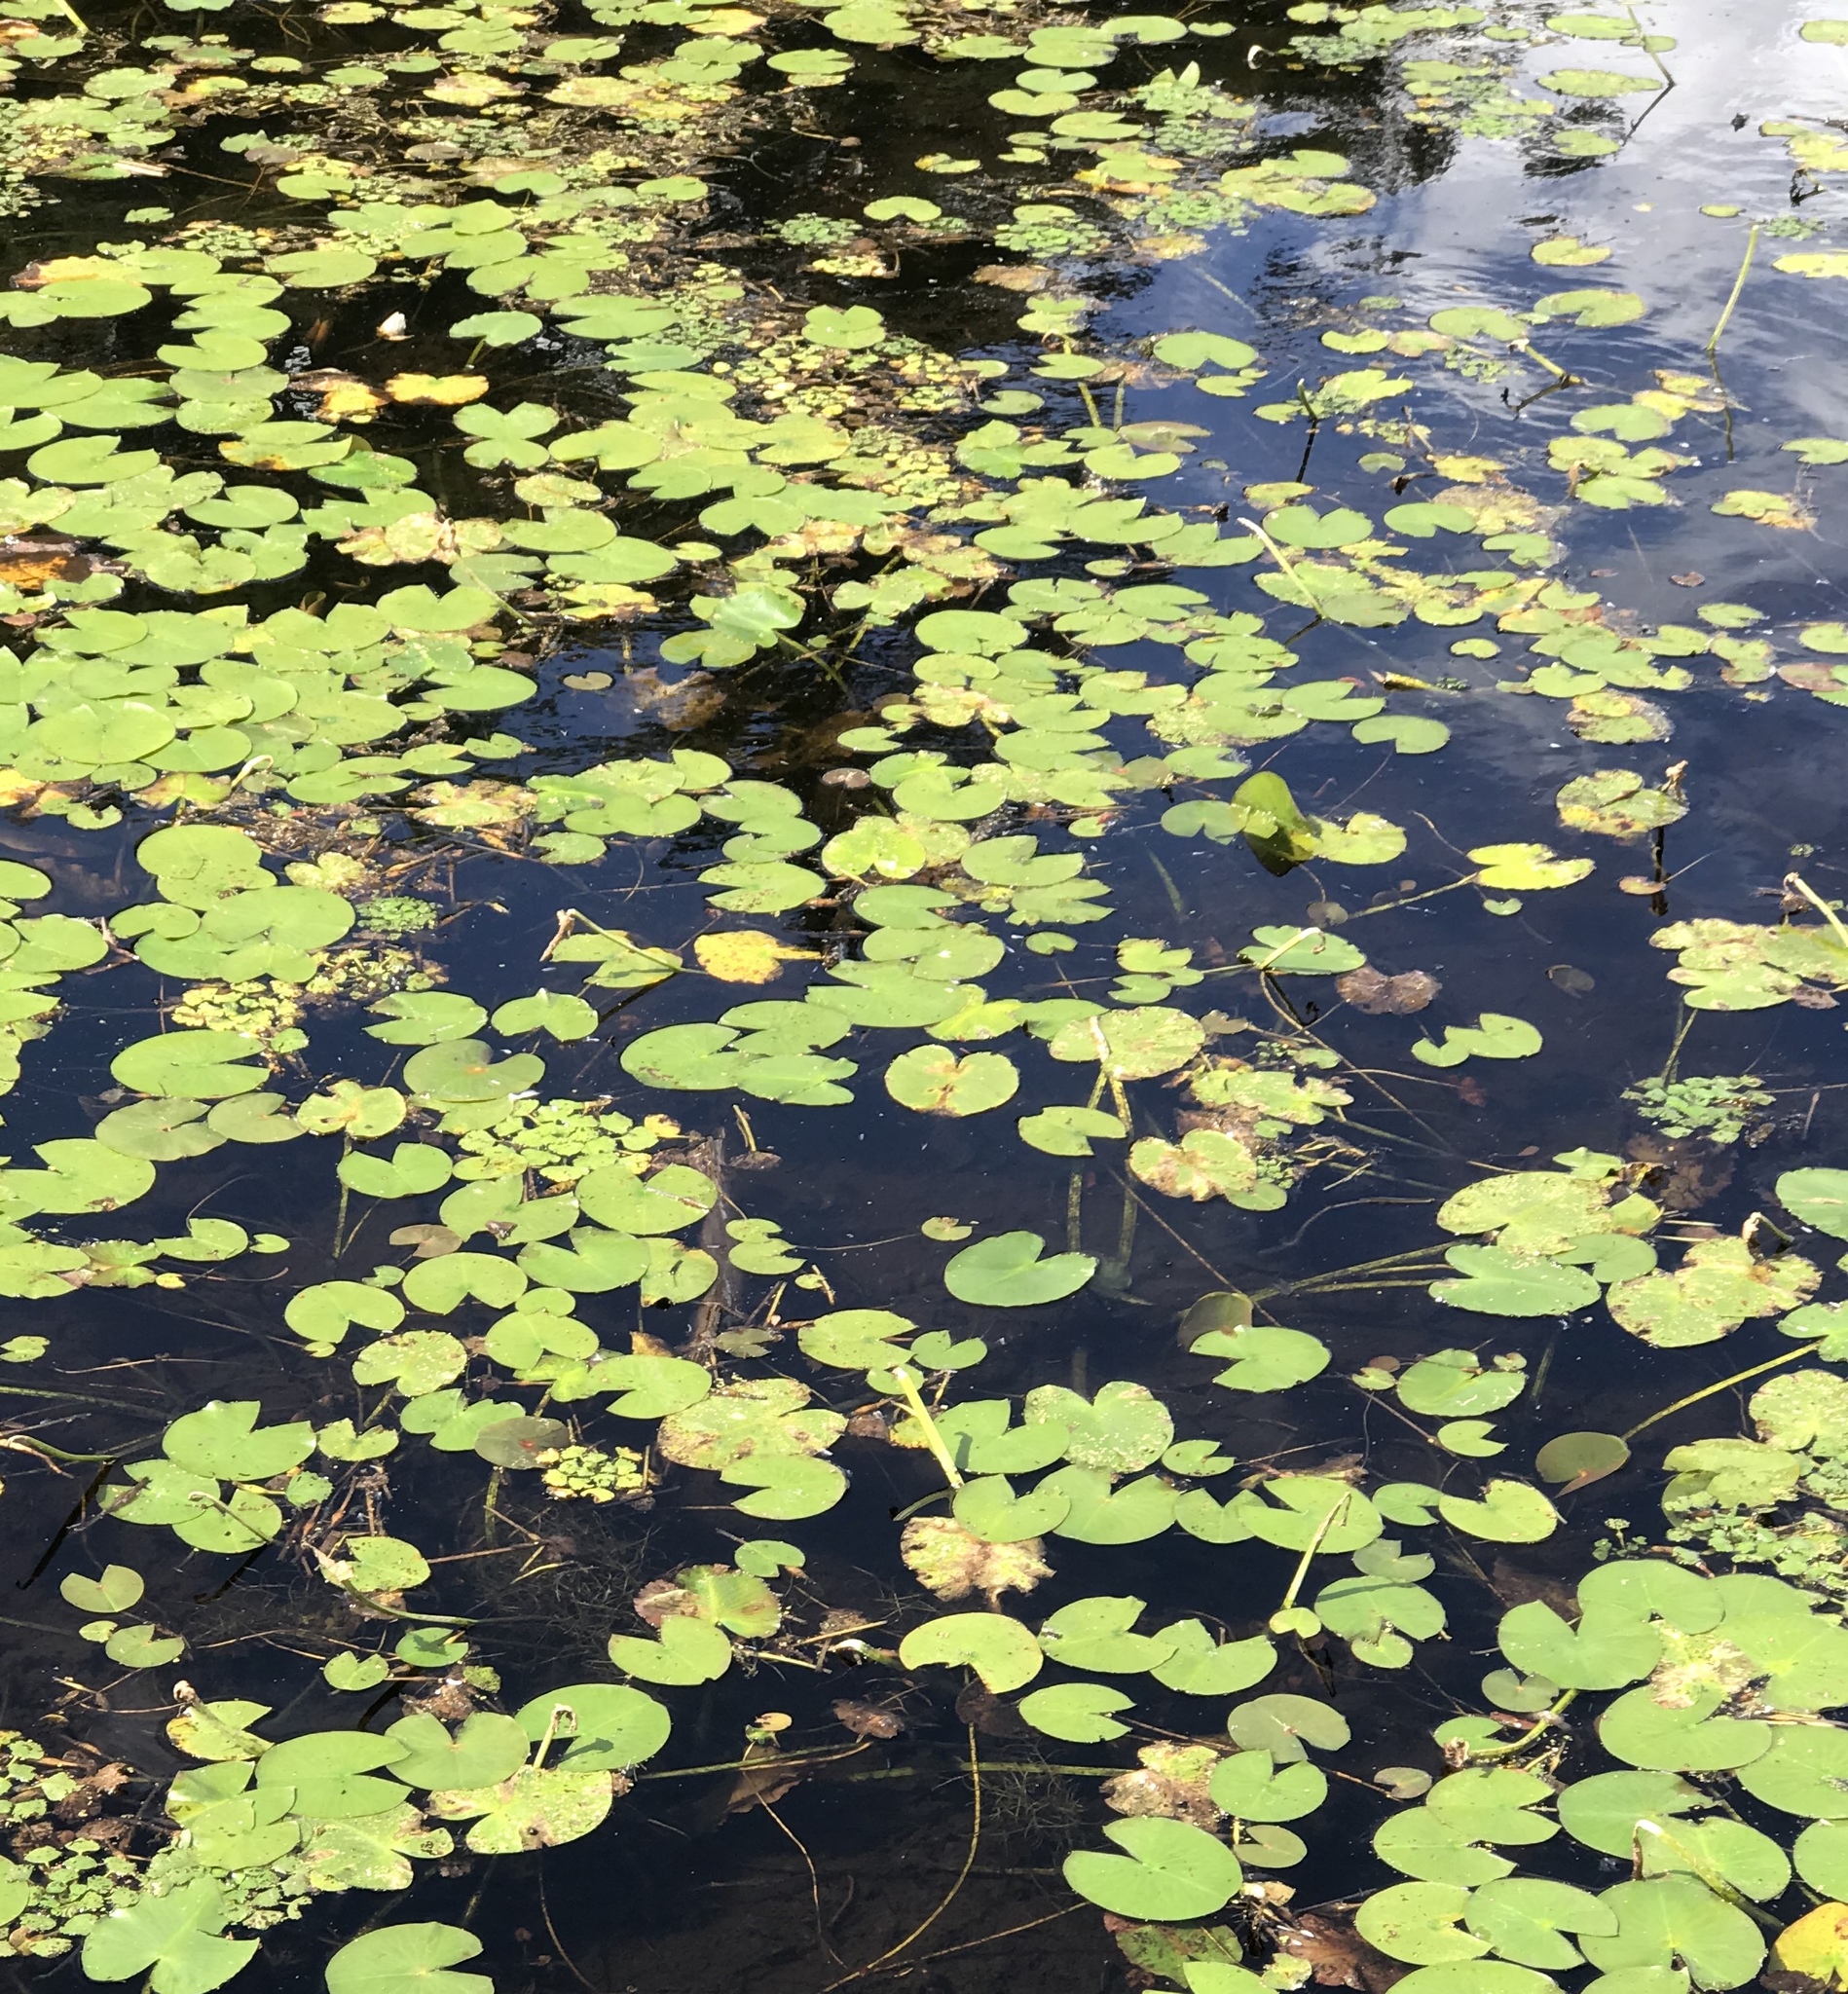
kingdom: Plantae
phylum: Tracheophyta
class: Magnoliopsida
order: Nymphaeales
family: Nymphaeaceae
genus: Nymphaea
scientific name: Nymphaea odorata
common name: Fragrant water-lily
